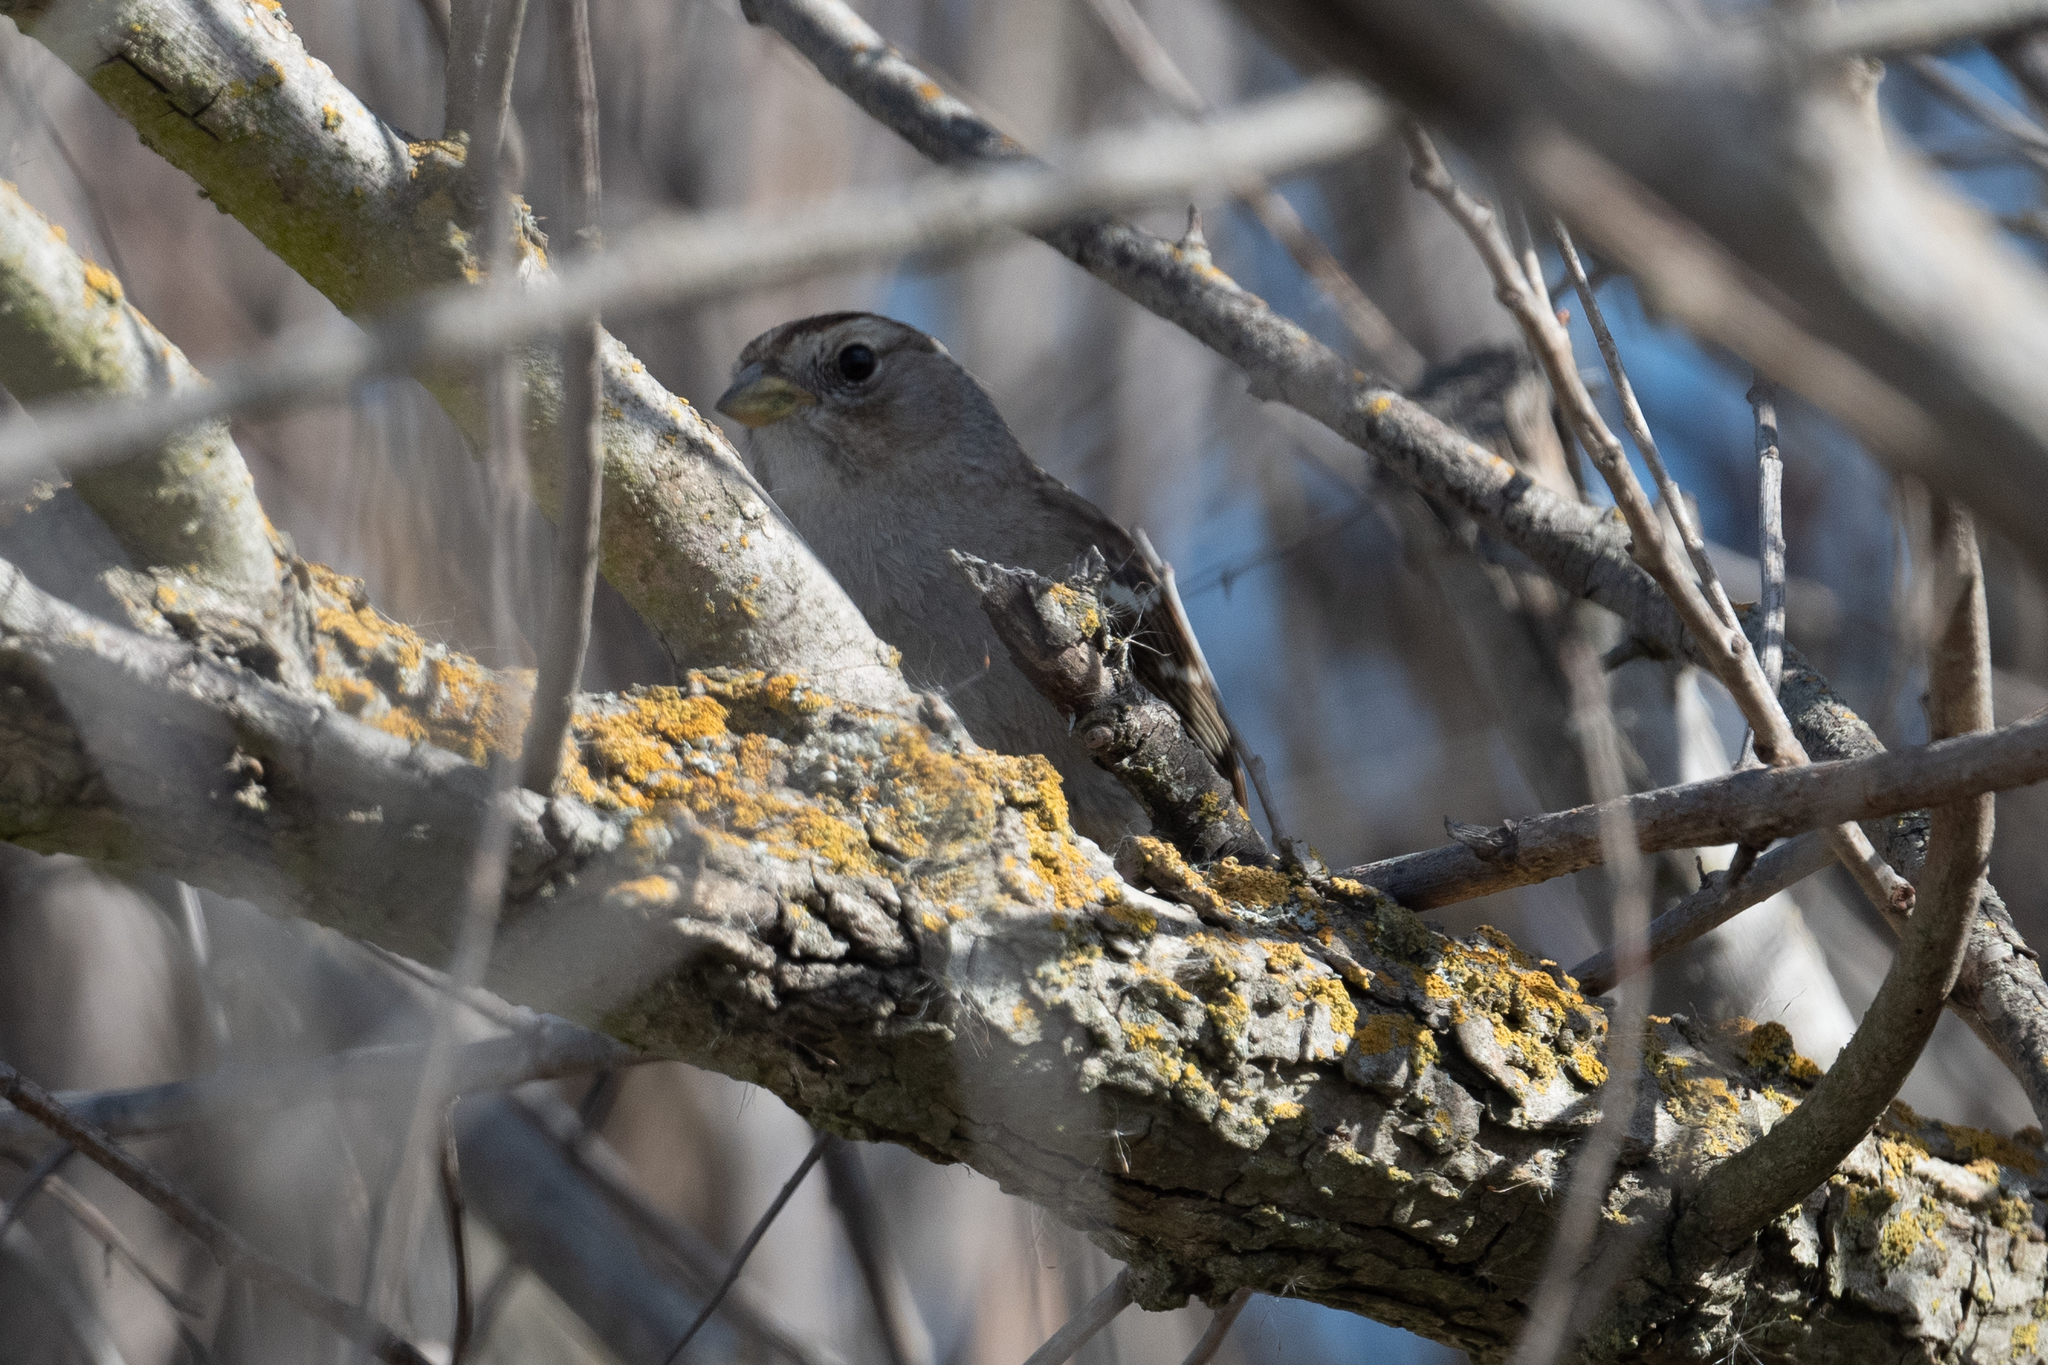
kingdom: Animalia
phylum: Chordata
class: Aves
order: Passeriformes
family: Passerellidae
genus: Zonotrichia
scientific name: Zonotrichia leucophrys
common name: White-crowned sparrow
